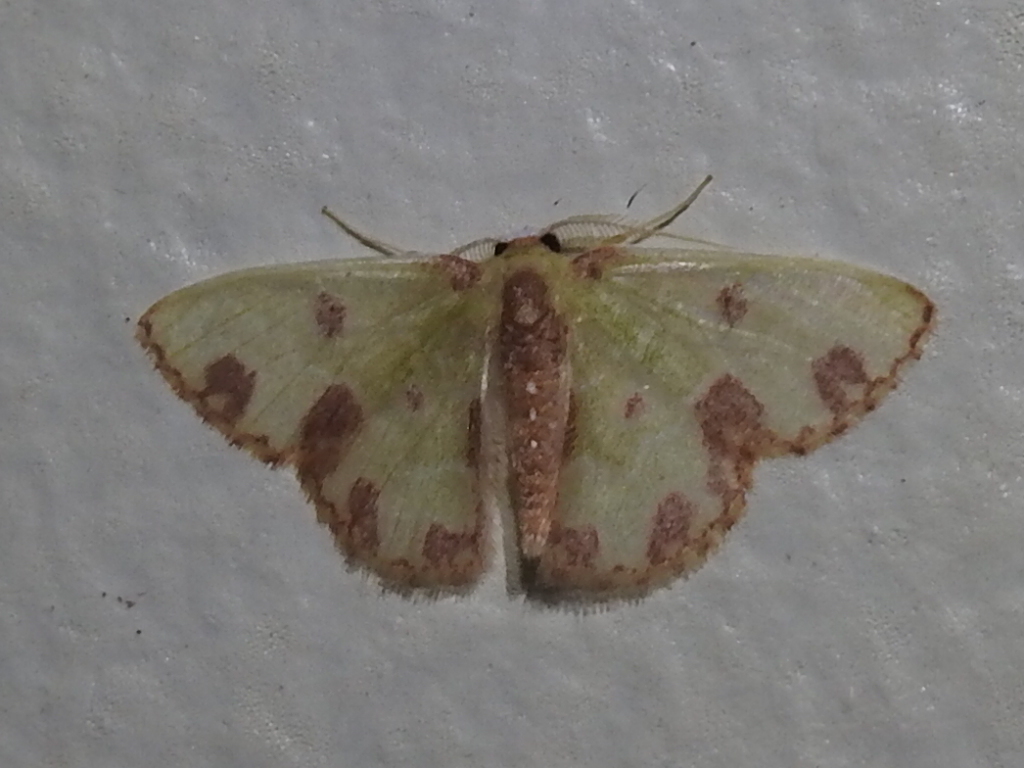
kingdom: Animalia
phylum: Arthropoda
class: Insecta
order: Lepidoptera
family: Geometridae
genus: Synchlora
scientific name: Synchlora gerularia
